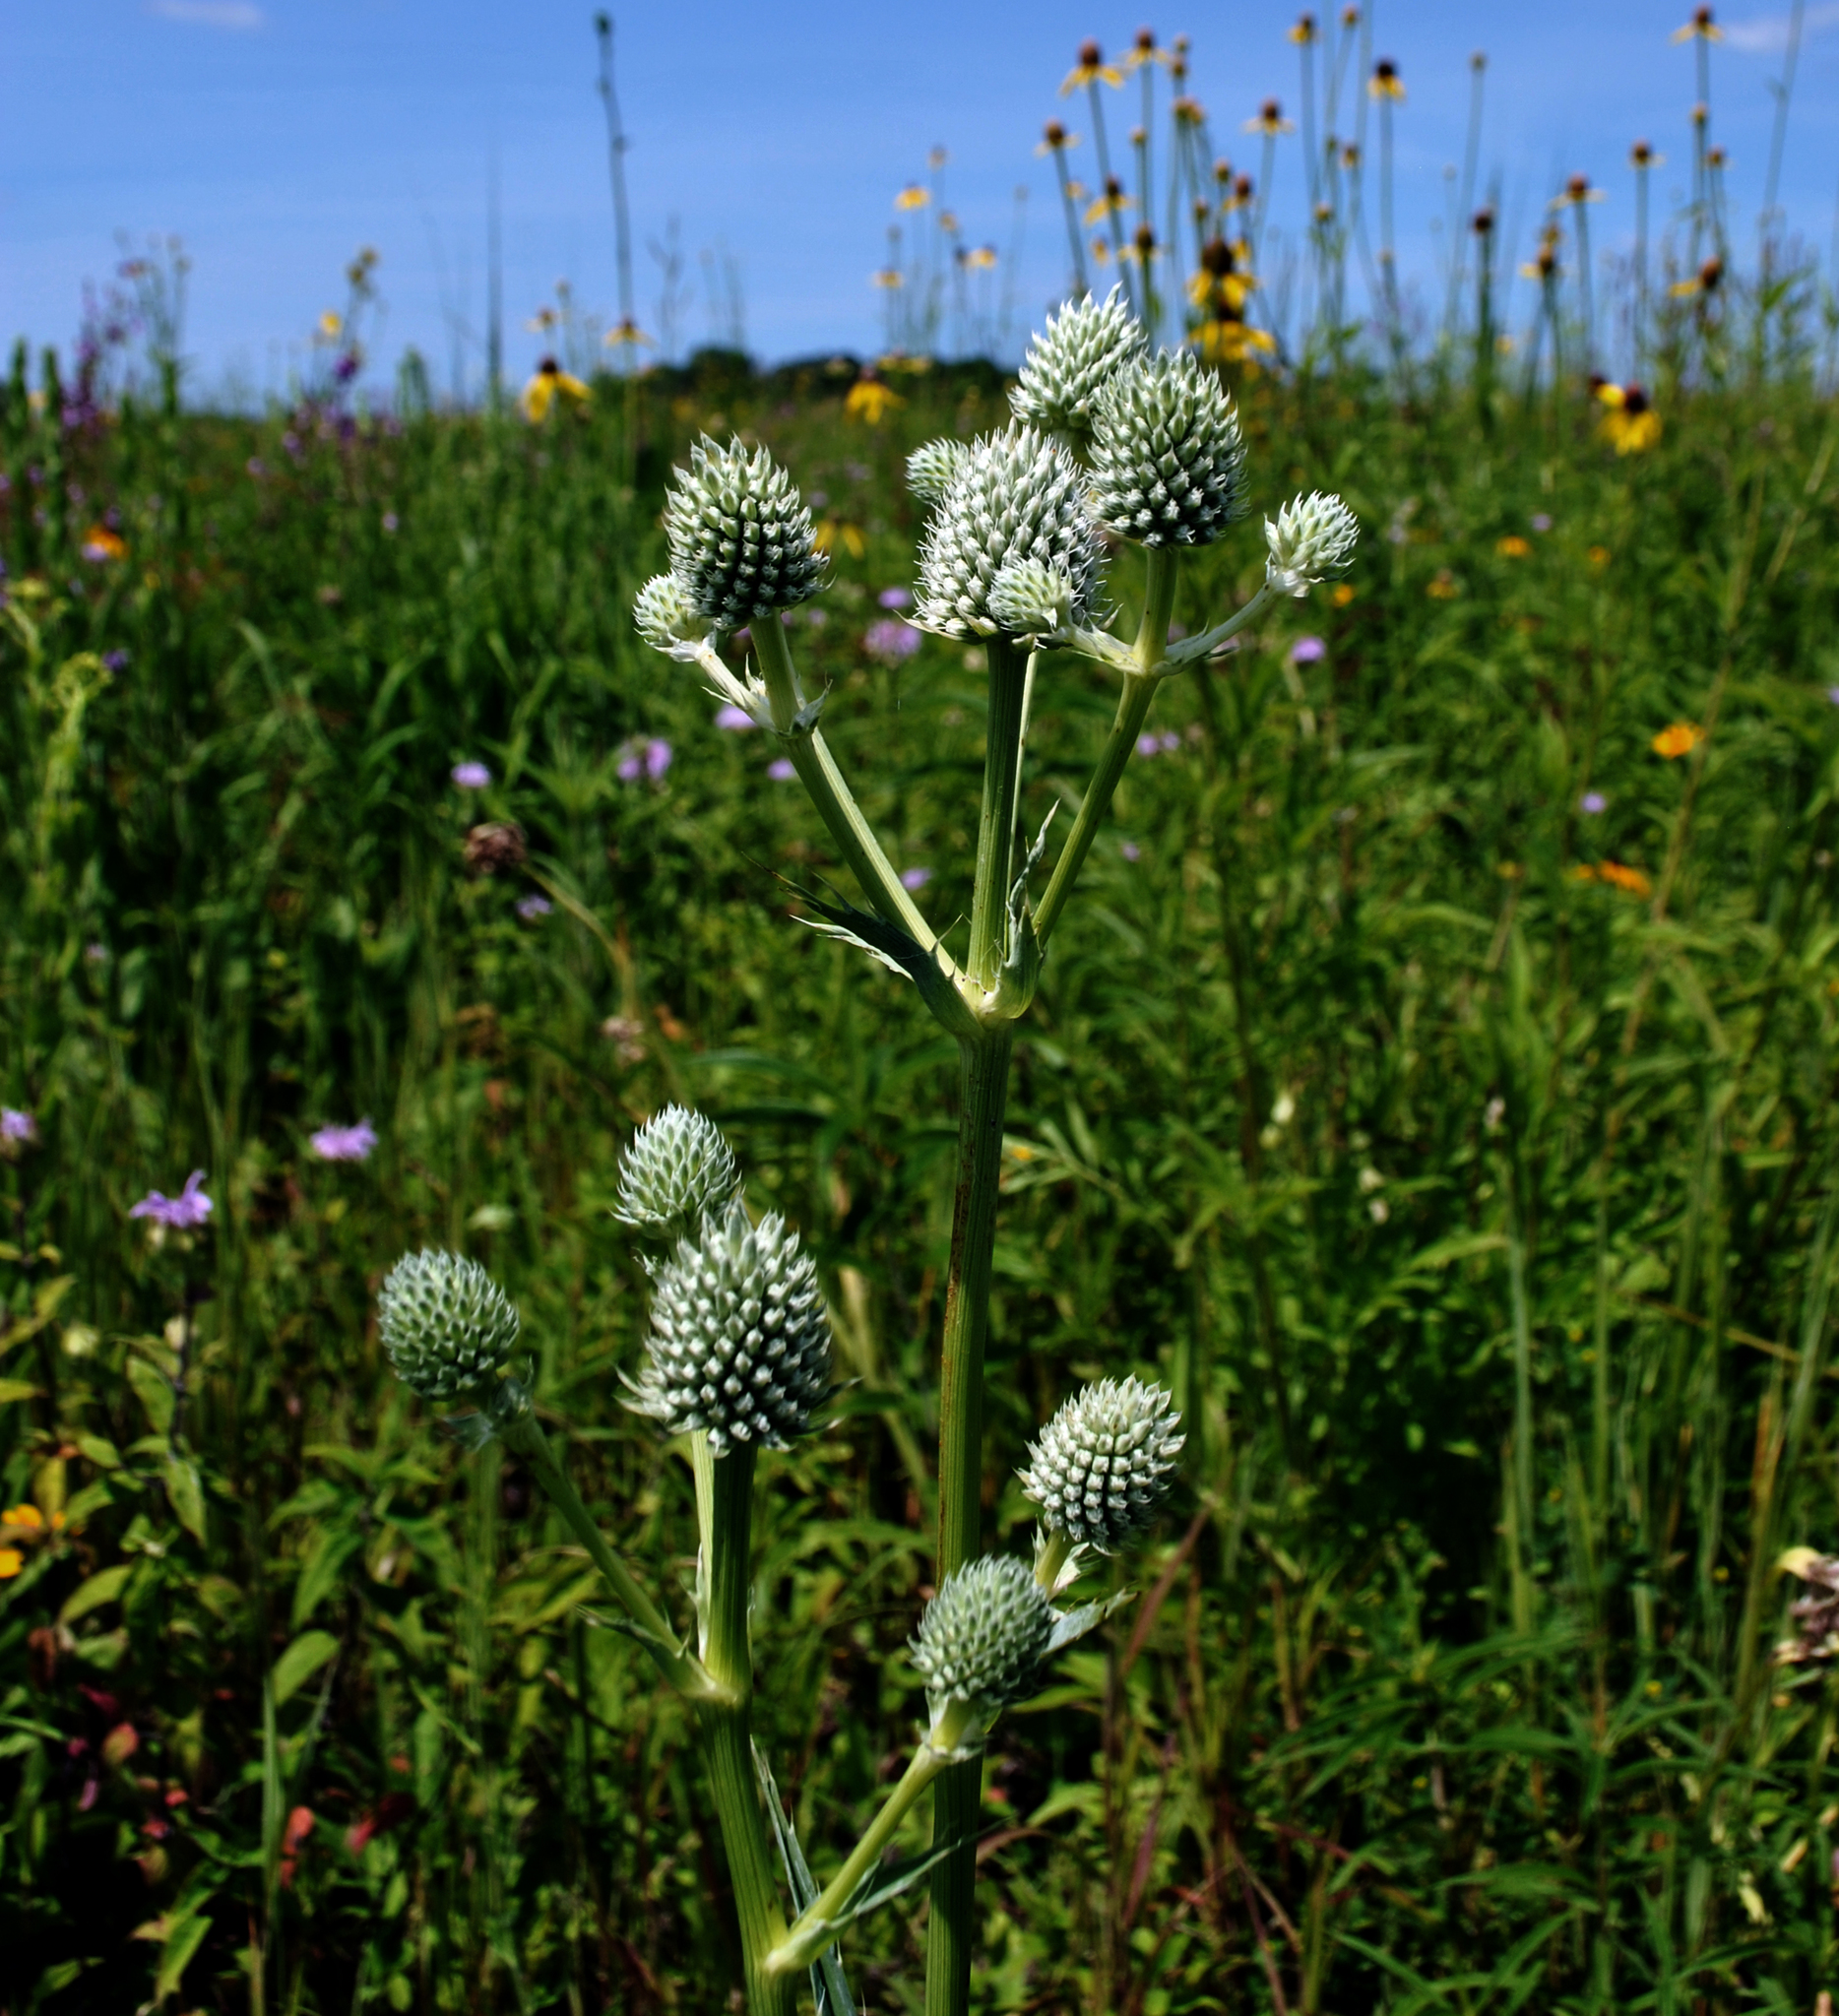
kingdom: Plantae
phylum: Tracheophyta
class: Magnoliopsida
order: Apiales
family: Apiaceae
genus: Eryngium
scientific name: Eryngium yuccifolium
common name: Button eryngo
